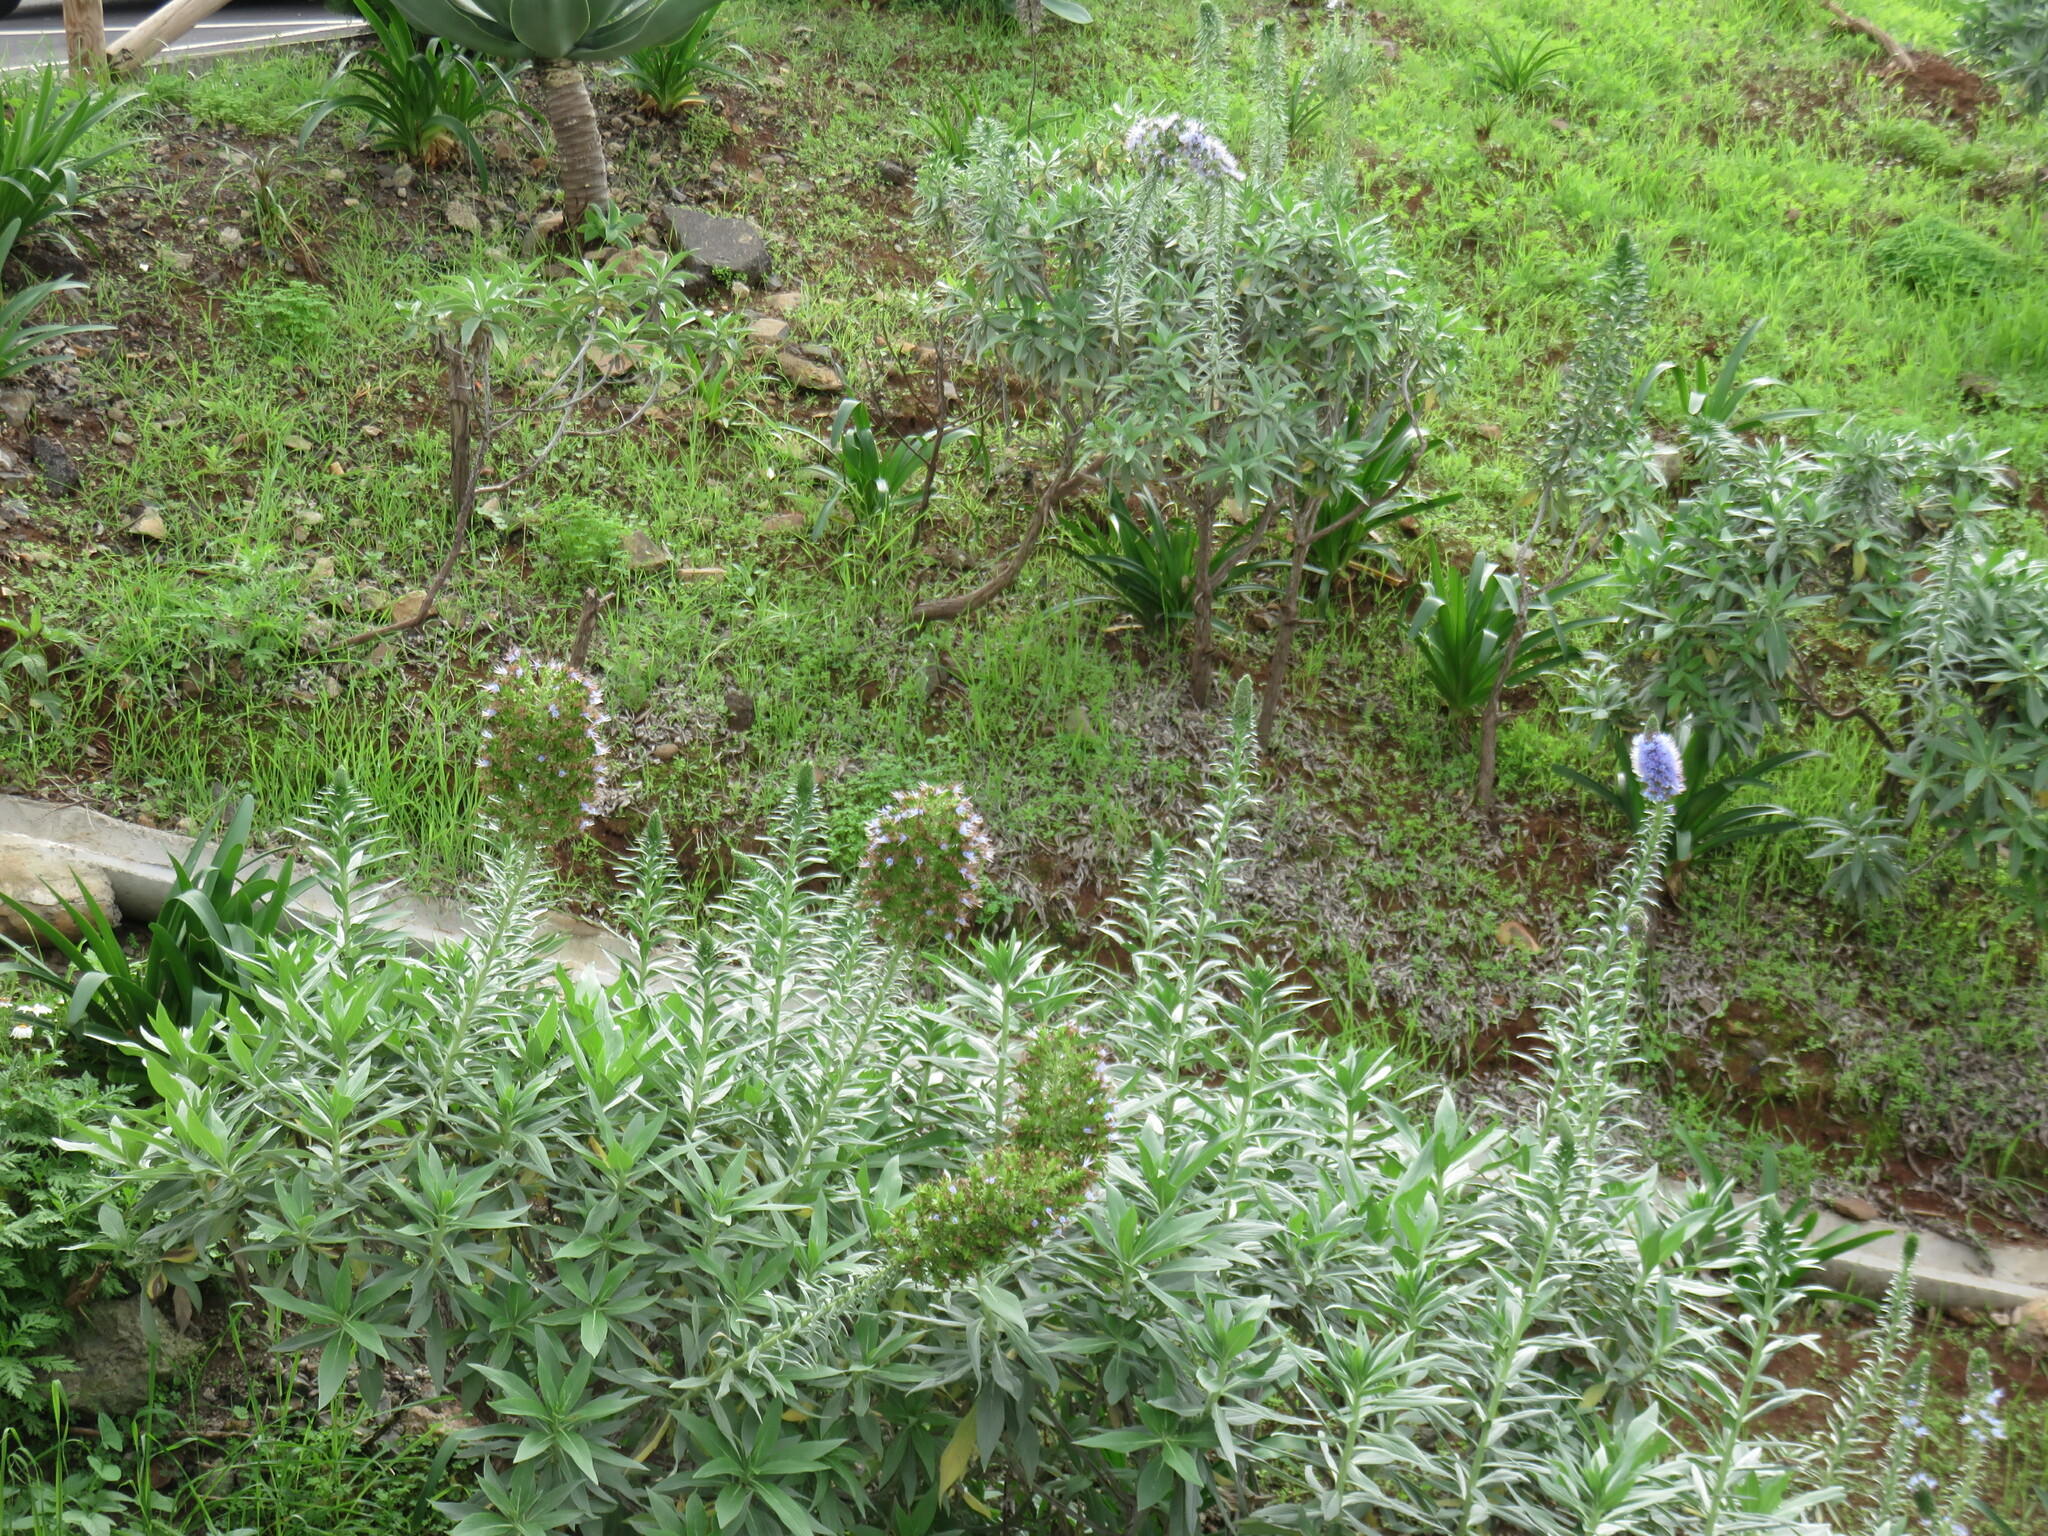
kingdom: Plantae
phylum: Tracheophyta
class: Magnoliopsida
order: Boraginales
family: Boraginaceae
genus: Echium
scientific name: Echium nervosum
